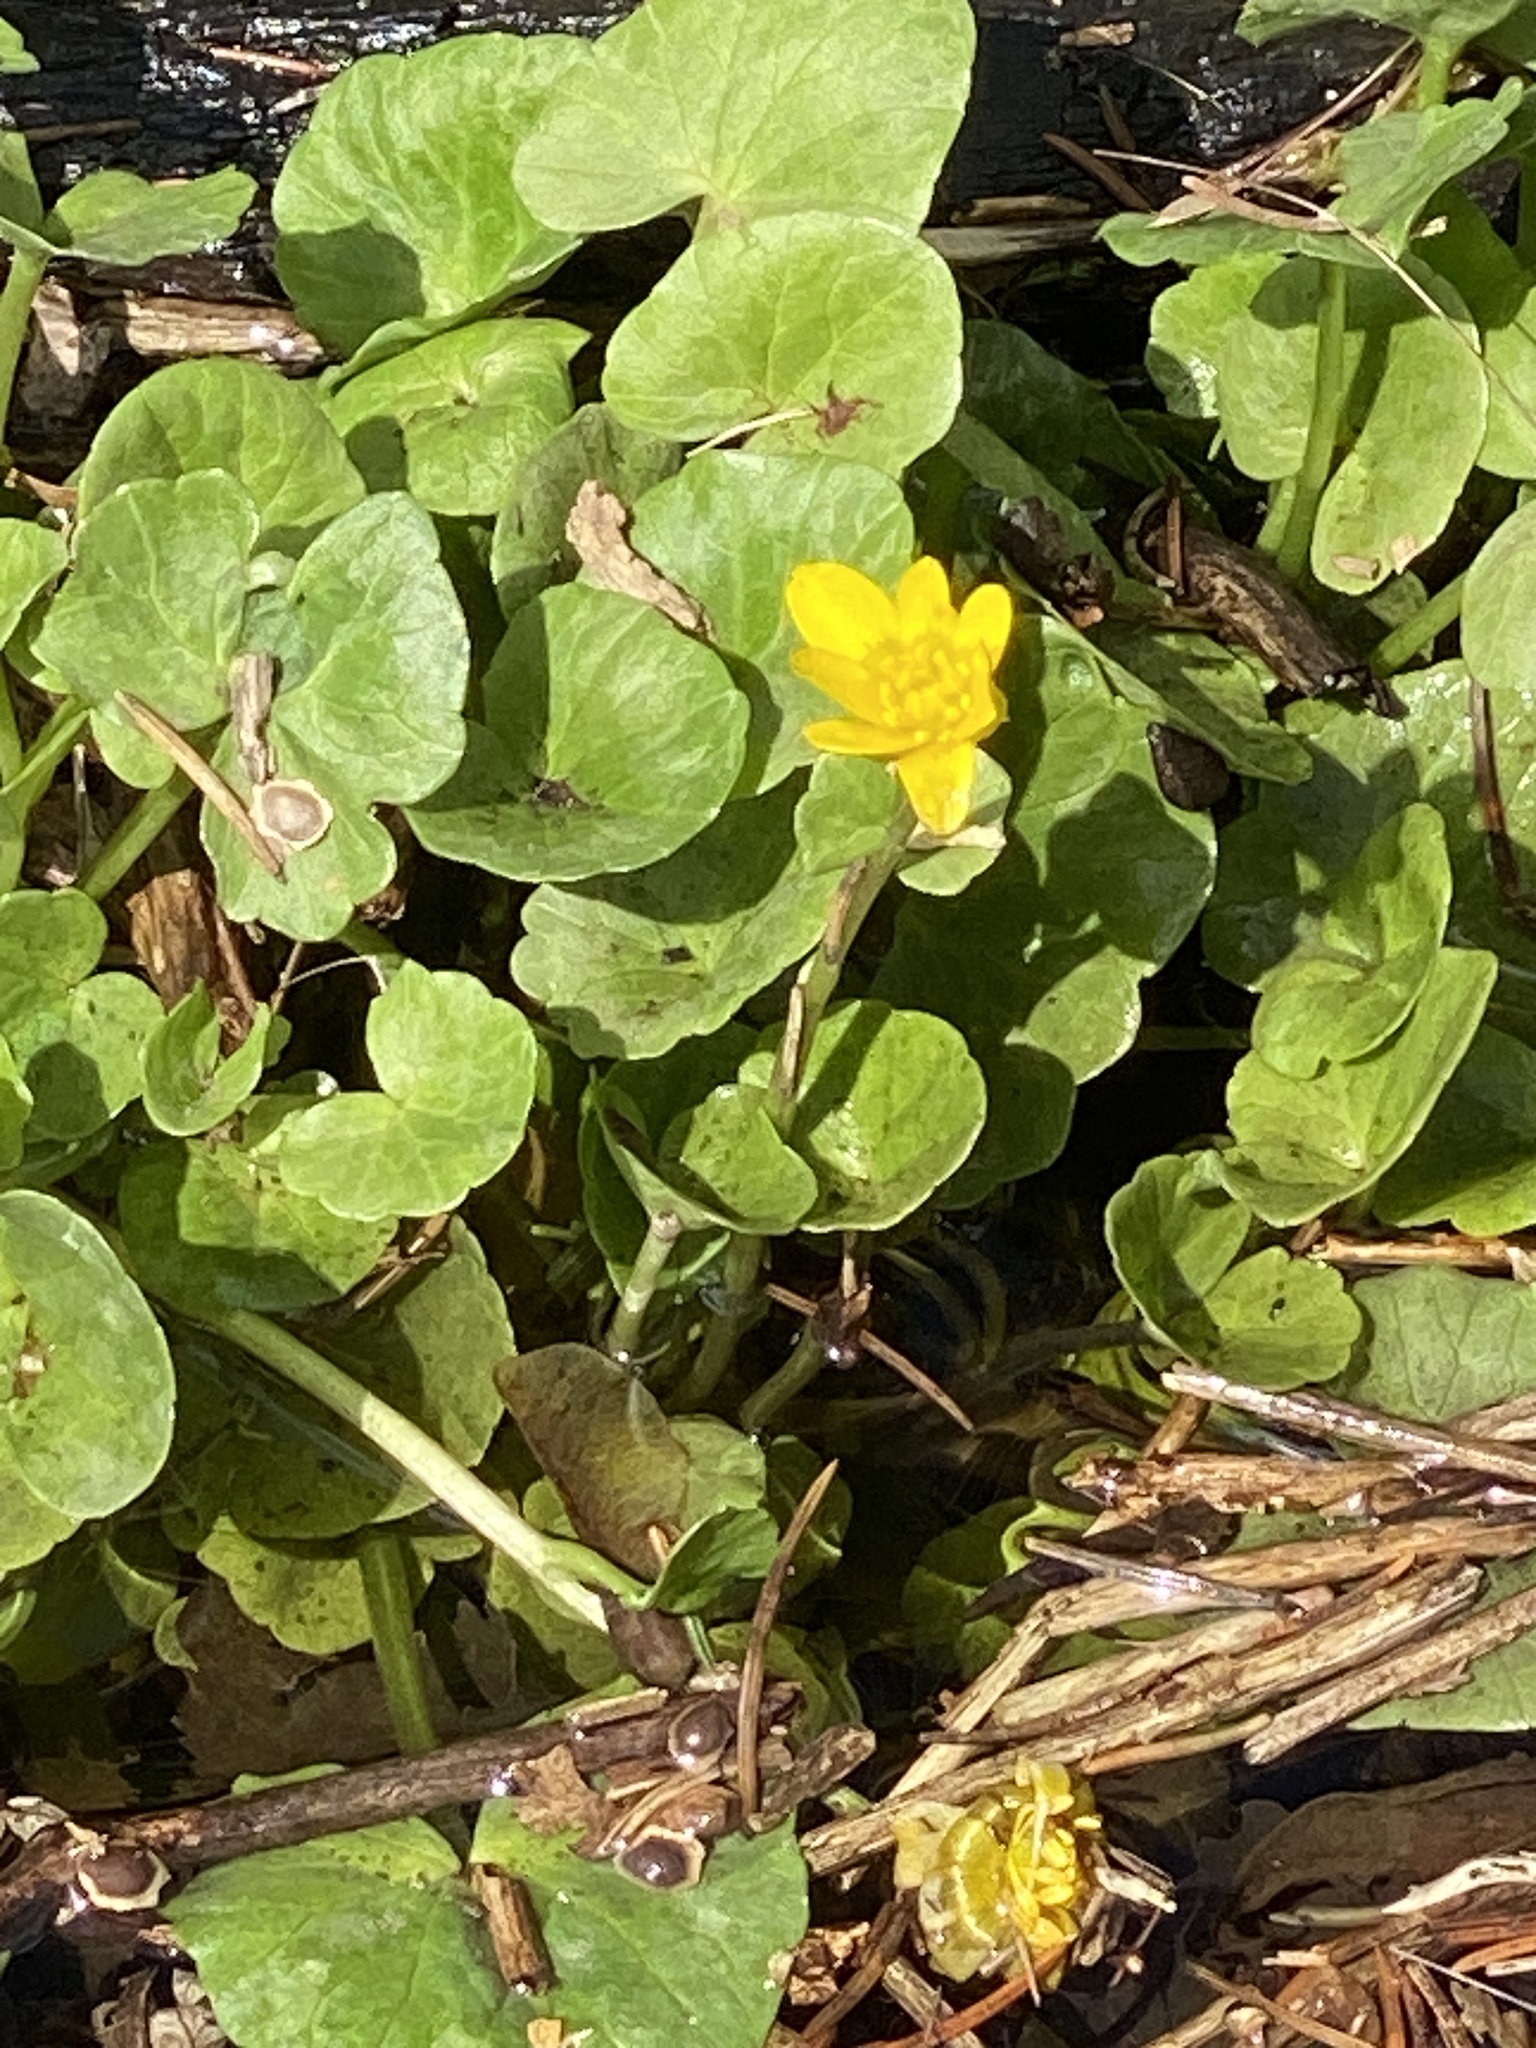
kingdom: Plantae
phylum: Tracheophyta
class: Magnoliopsida
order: Ranunculales
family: Ranunculaceae
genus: Ficaria
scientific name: Ficaria verna
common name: Lesser celandine
